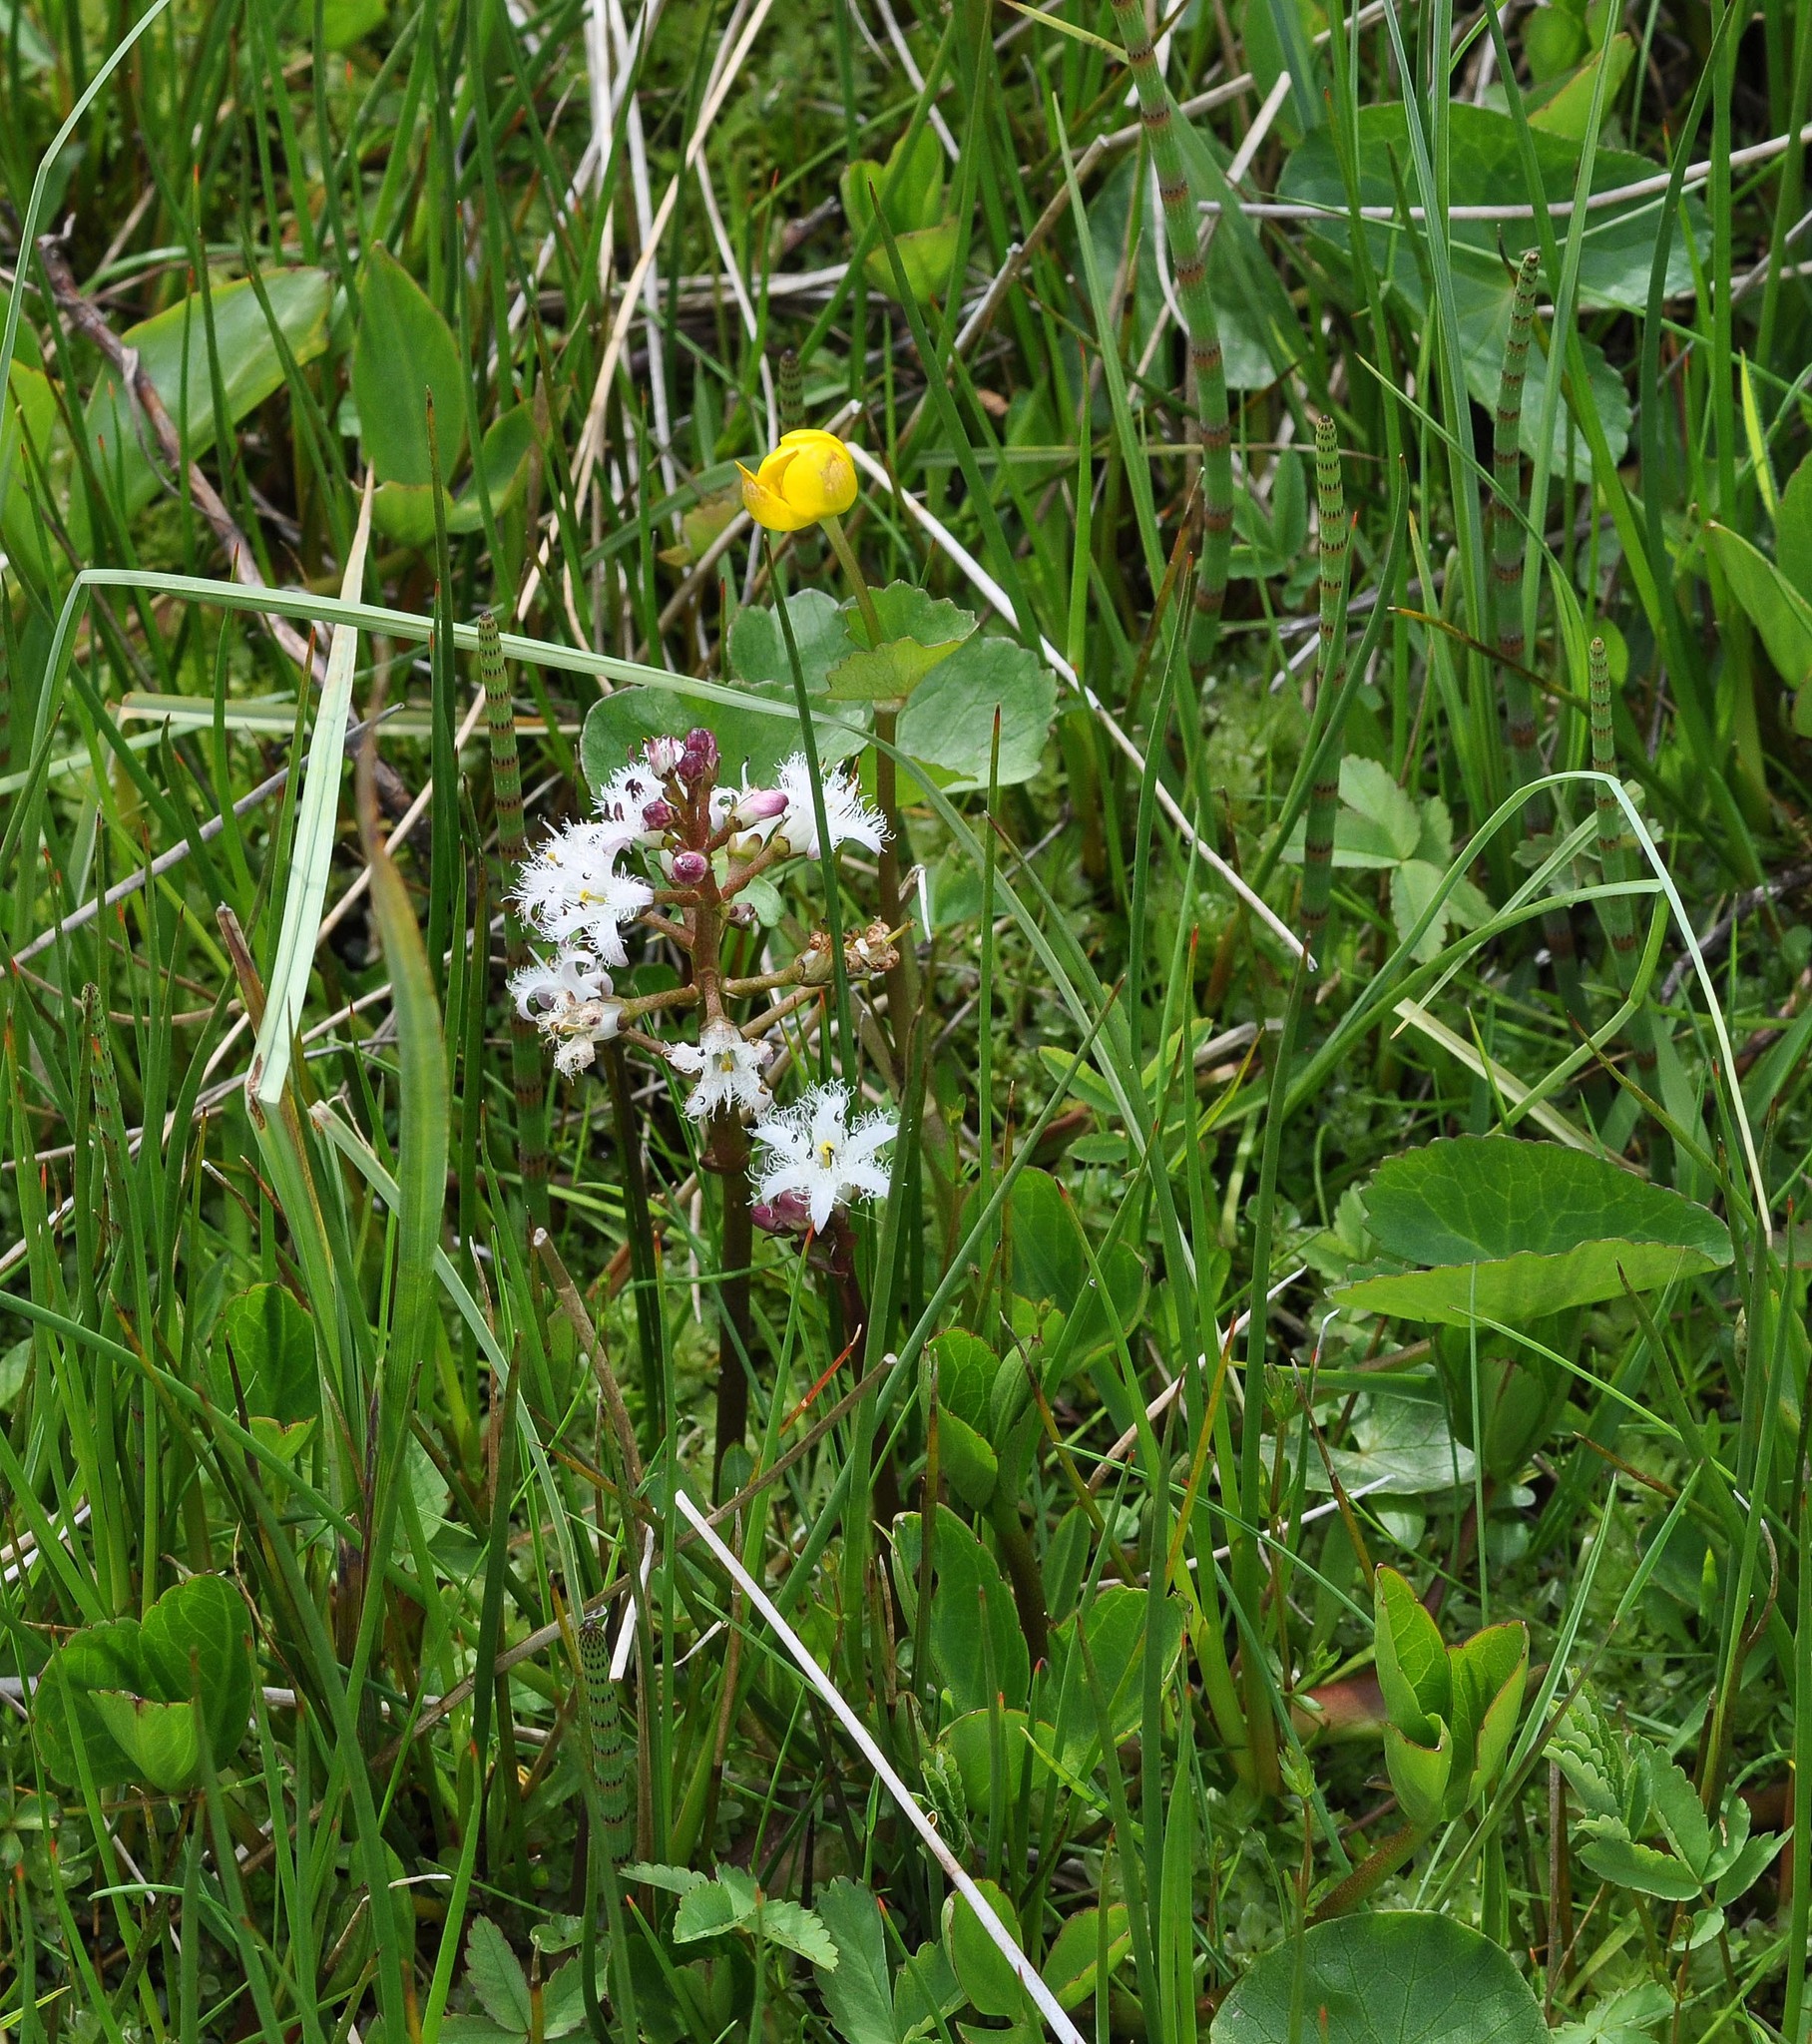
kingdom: Plantae
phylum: Tracheophyta
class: Magnoliopsida
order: Asterales
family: Menyanthaceae
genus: Menyanthes
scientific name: Menyanthes trifoliata
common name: Bogbean
